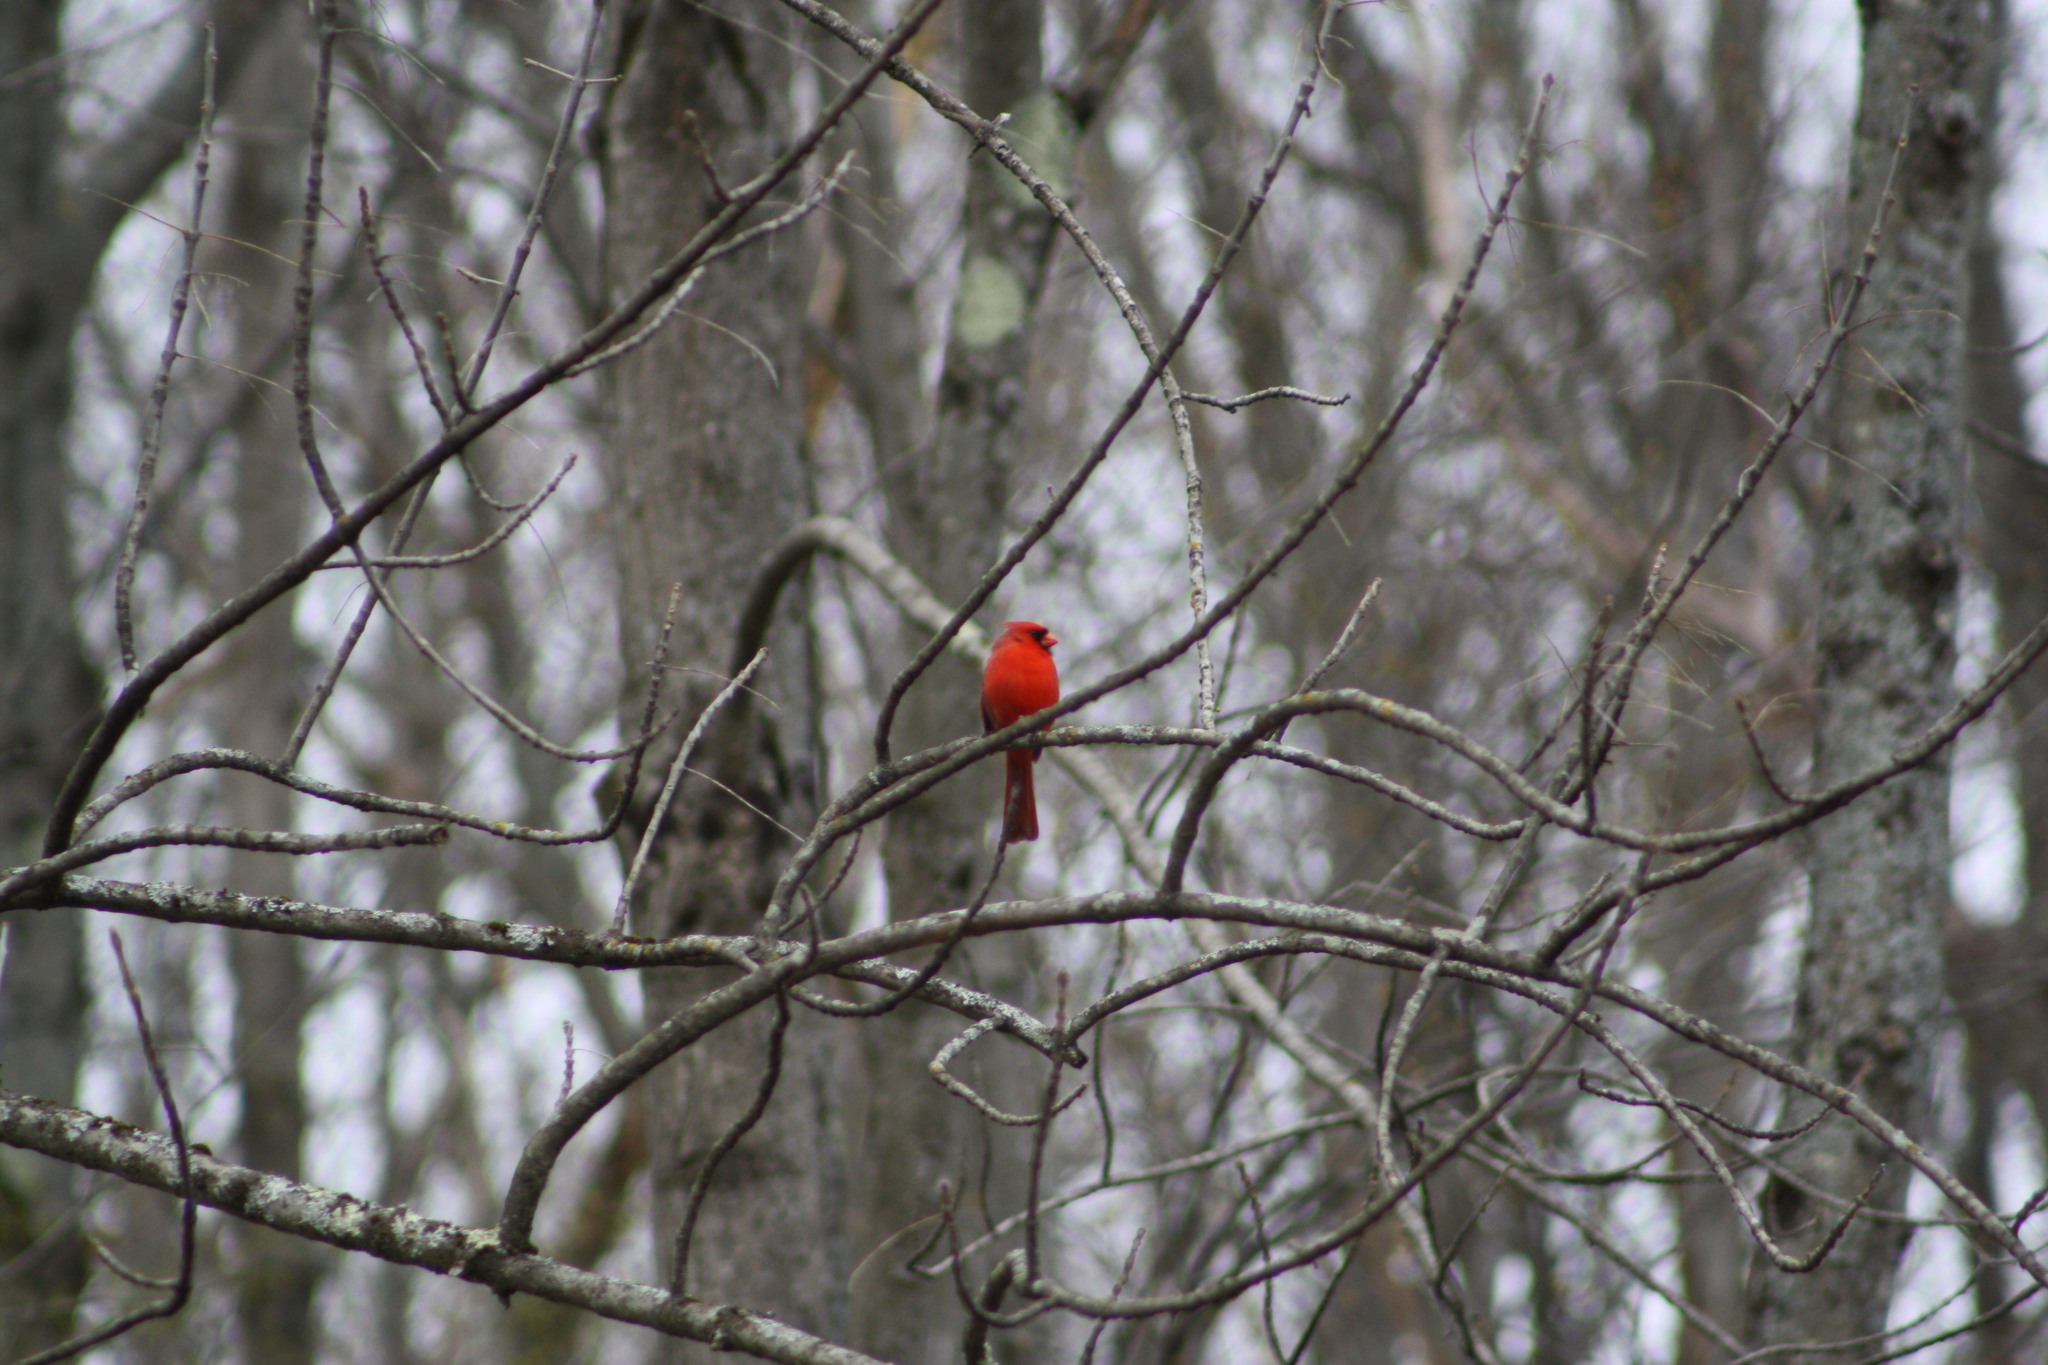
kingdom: Animalia
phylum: Chordata
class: Aves
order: Passeriformes
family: Cardinalidae
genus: Cardinalis
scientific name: Cardinalis cardinalis
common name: Northern cardinal
